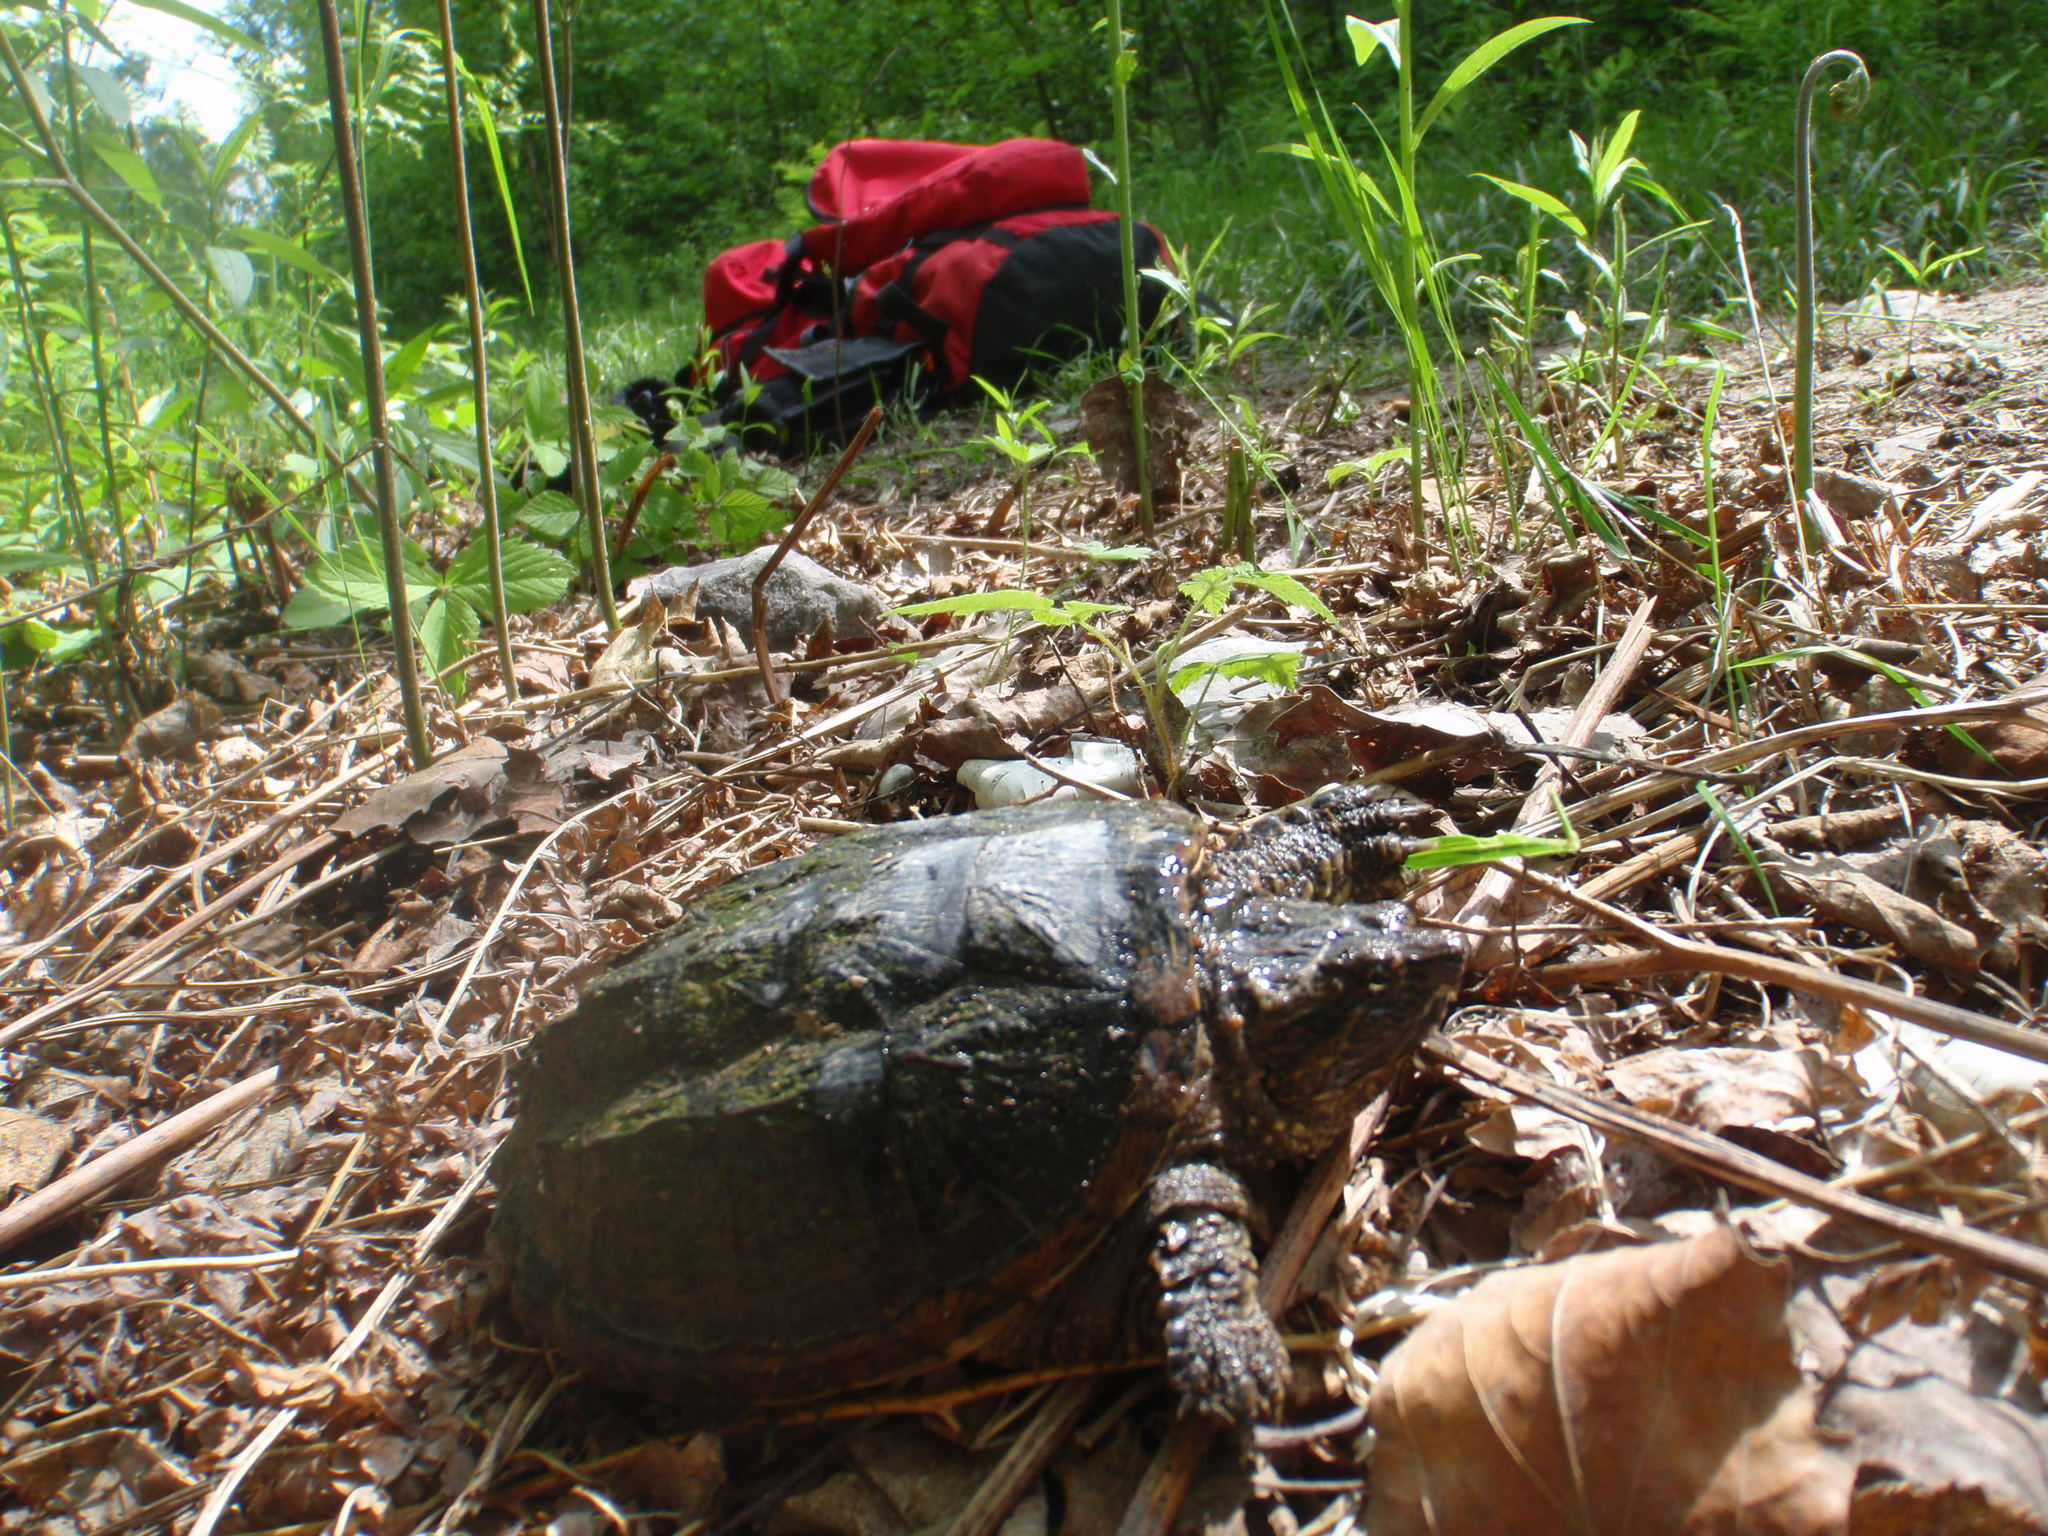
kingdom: Animalia
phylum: Chordata
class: Testudines
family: Chelydridae
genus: Chelydra
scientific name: Chelydra serpentina
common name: Common snapping turtle
